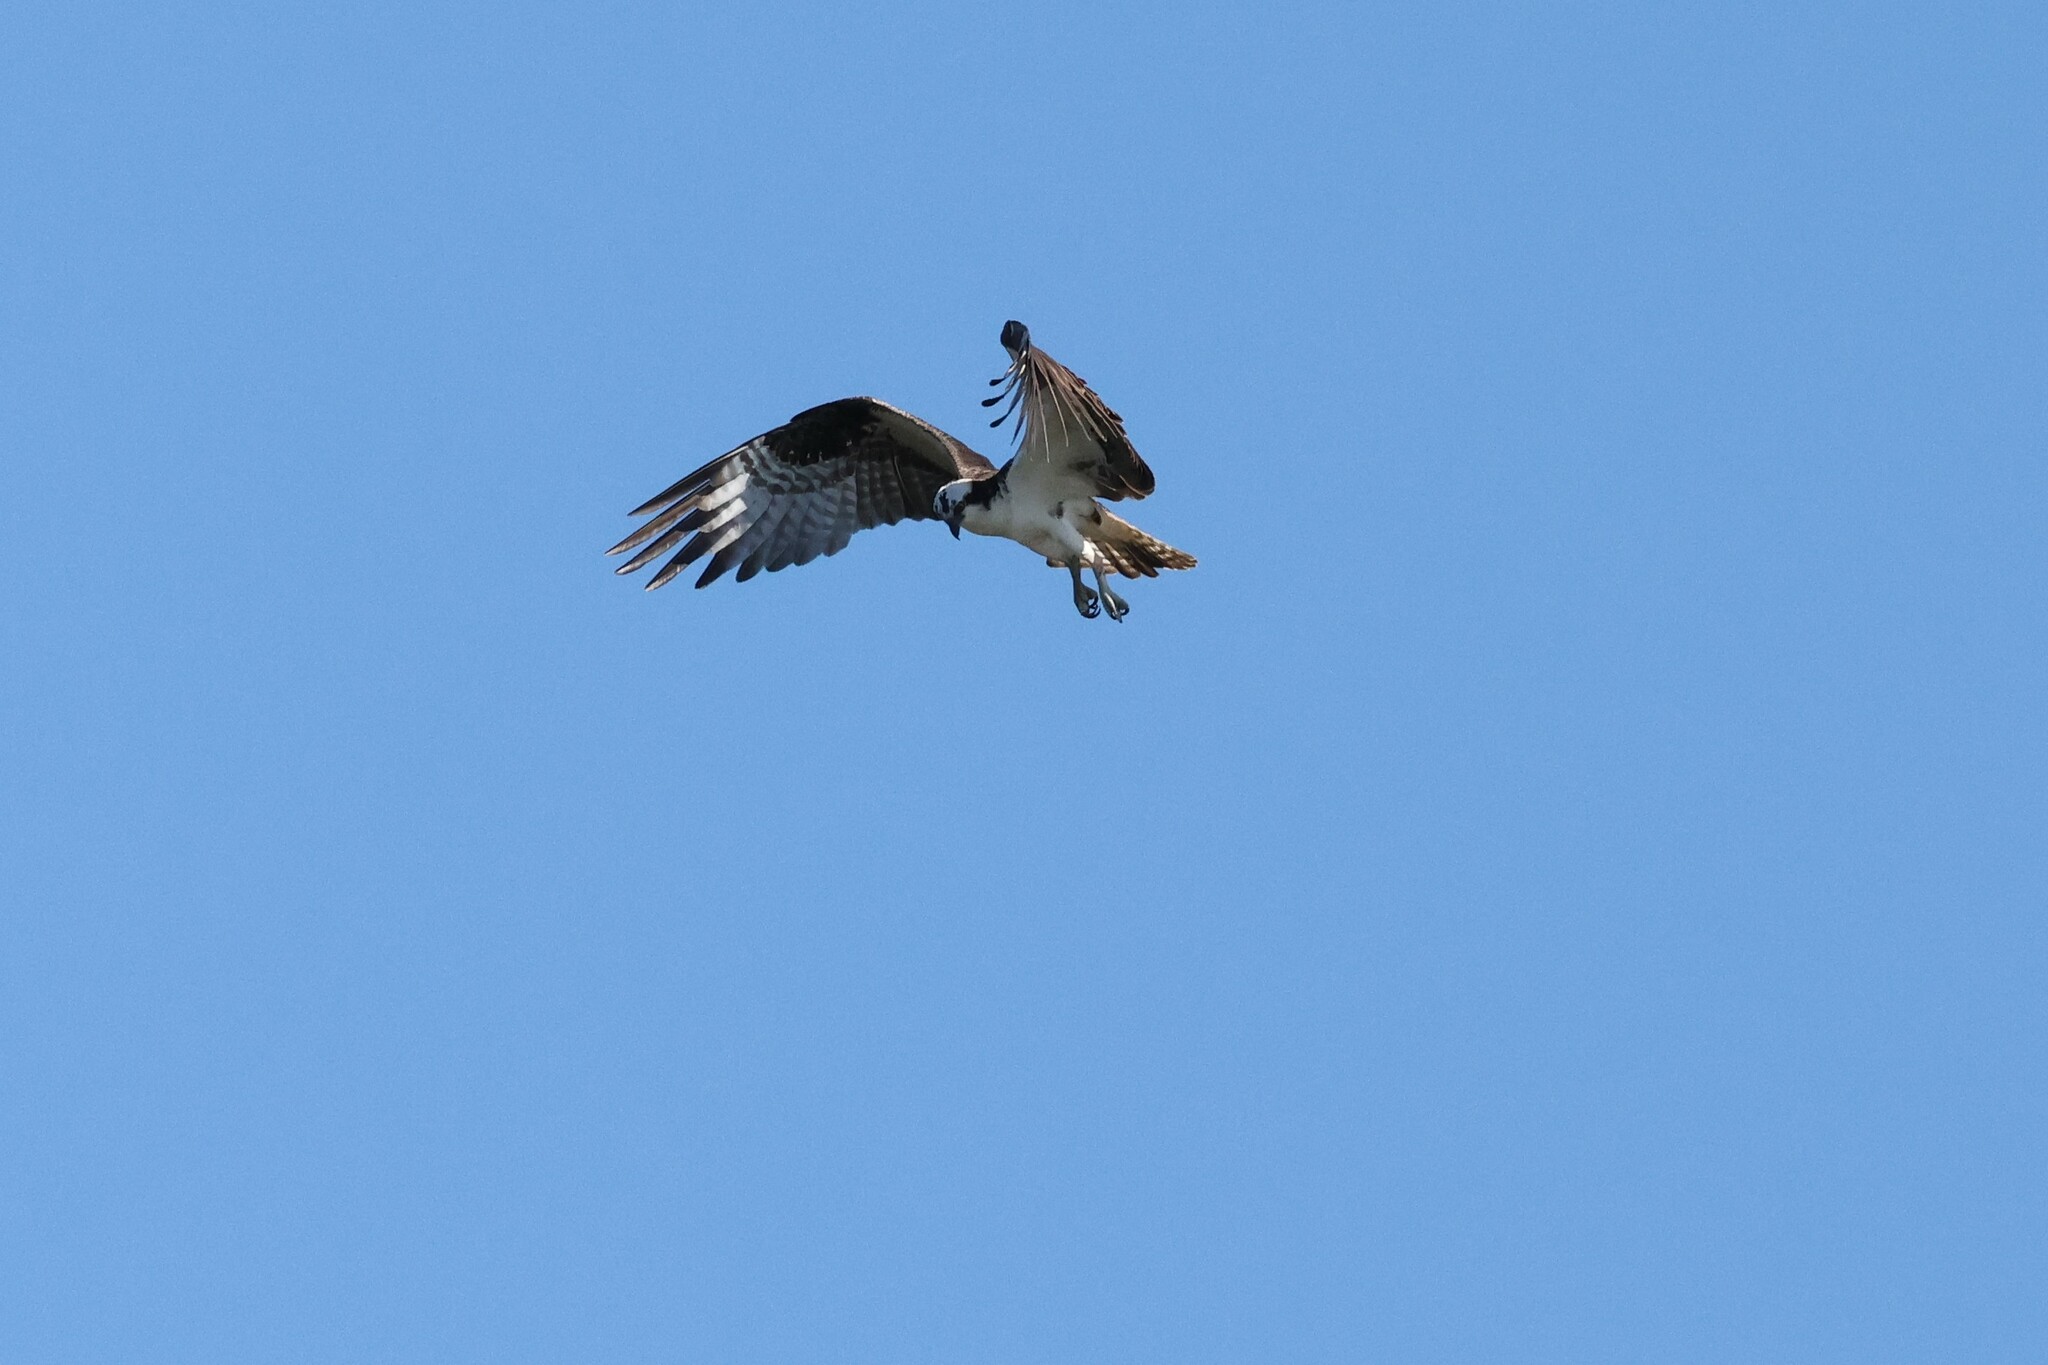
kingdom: Animalia
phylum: Chordata
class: Aves
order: Accipitriformes
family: Pandionidae
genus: Pandion
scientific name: Pandion haliaetus
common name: Osprey
